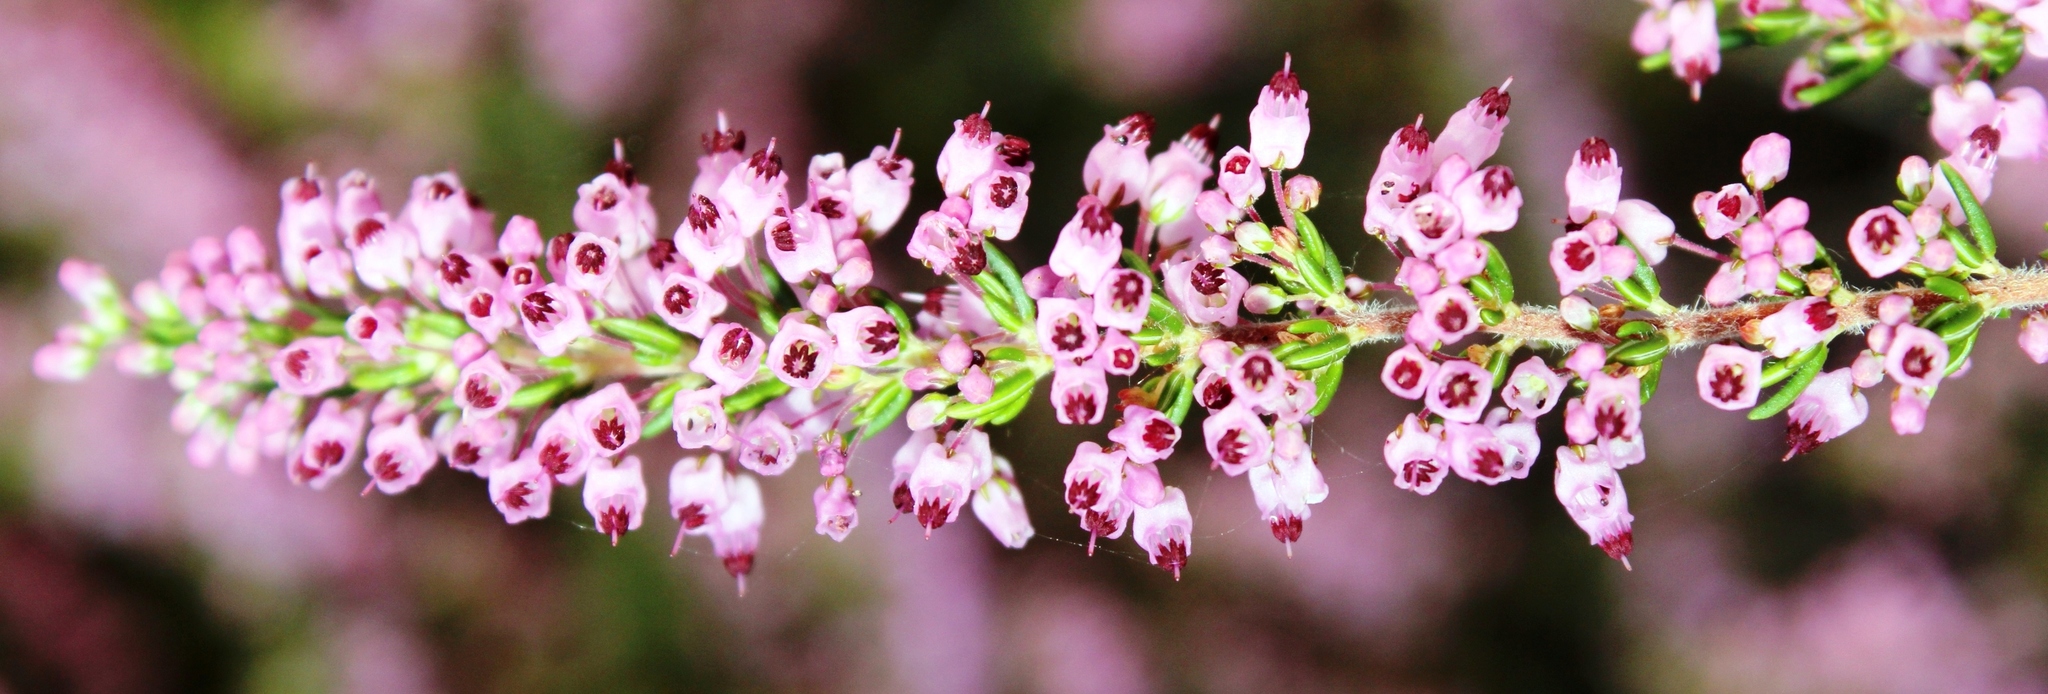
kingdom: Plantae
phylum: Tracheophyta
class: Magnoliopsida
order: Ericales
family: Ericaceae
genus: Erica
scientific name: Erica nudiflora
